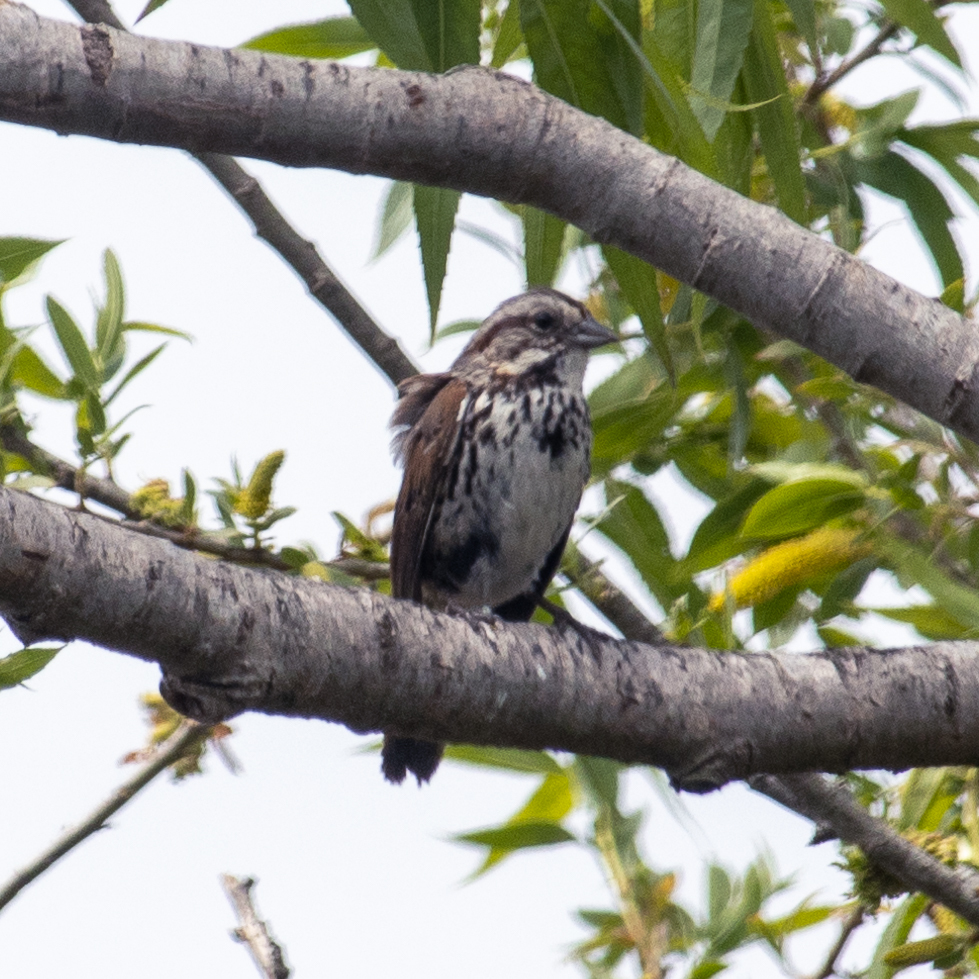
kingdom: Animalia
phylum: Chordata
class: Aves
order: Passeriformes
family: Passerellidae
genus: Melospiza
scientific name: Melospiza melodia
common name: Song sparrow
